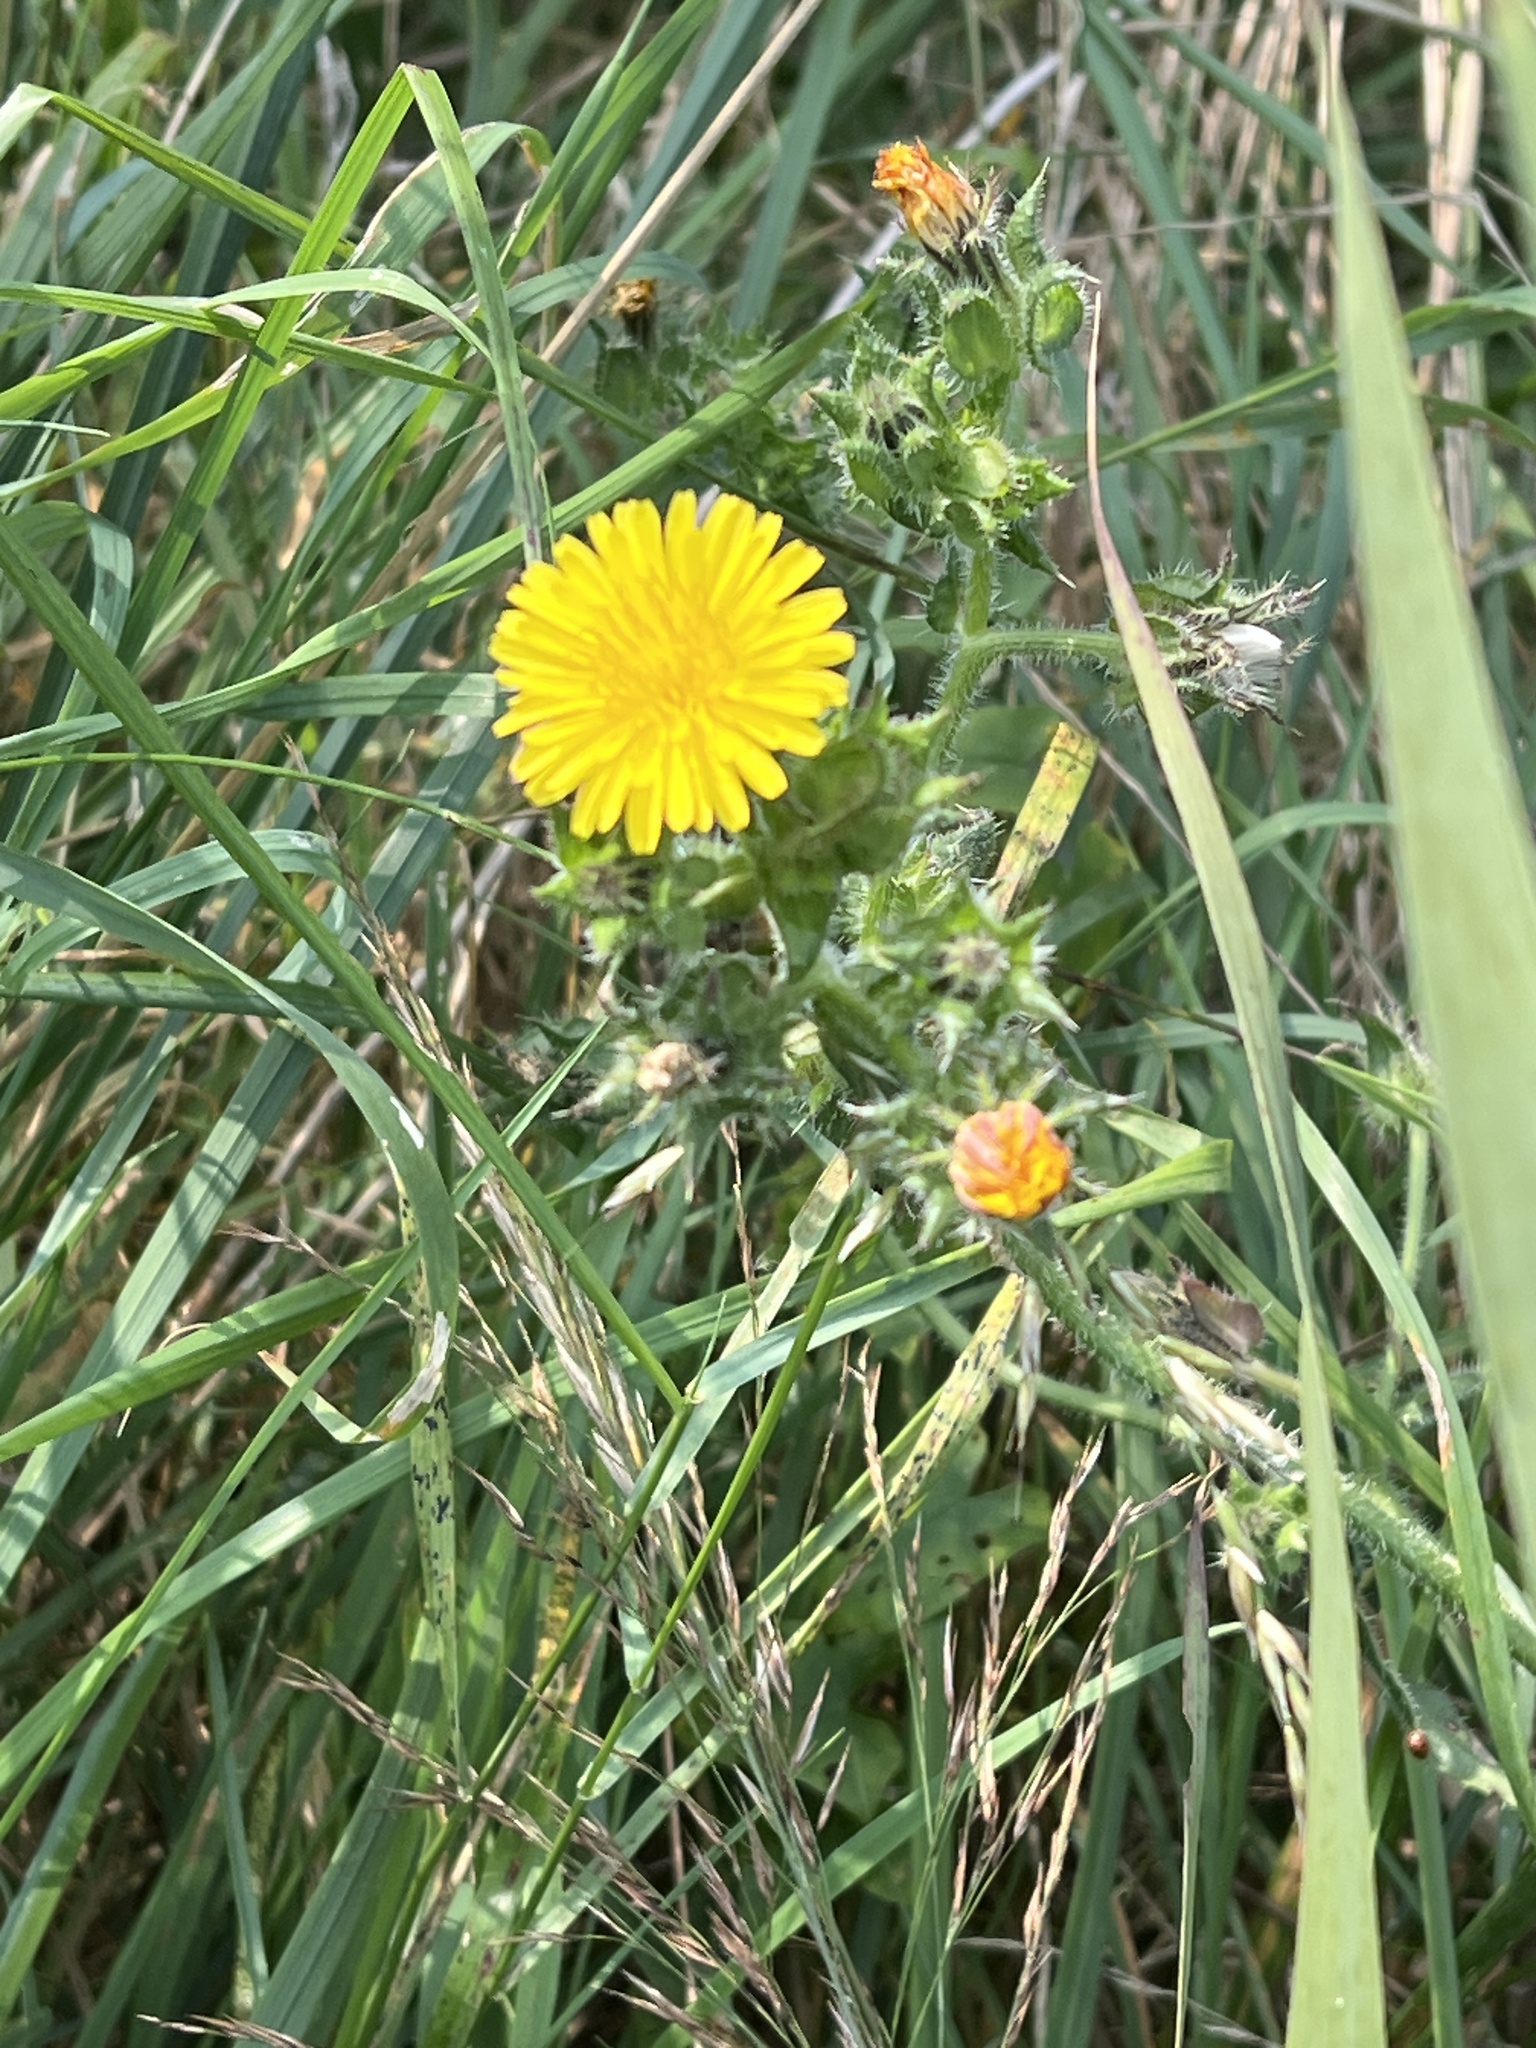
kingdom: Plantae
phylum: Tracheophyta
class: Magnoliopsida
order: Asterales
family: Asteraceae
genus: Helminthotheca
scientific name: Helminthotheca echioides
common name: Ox-tongue
